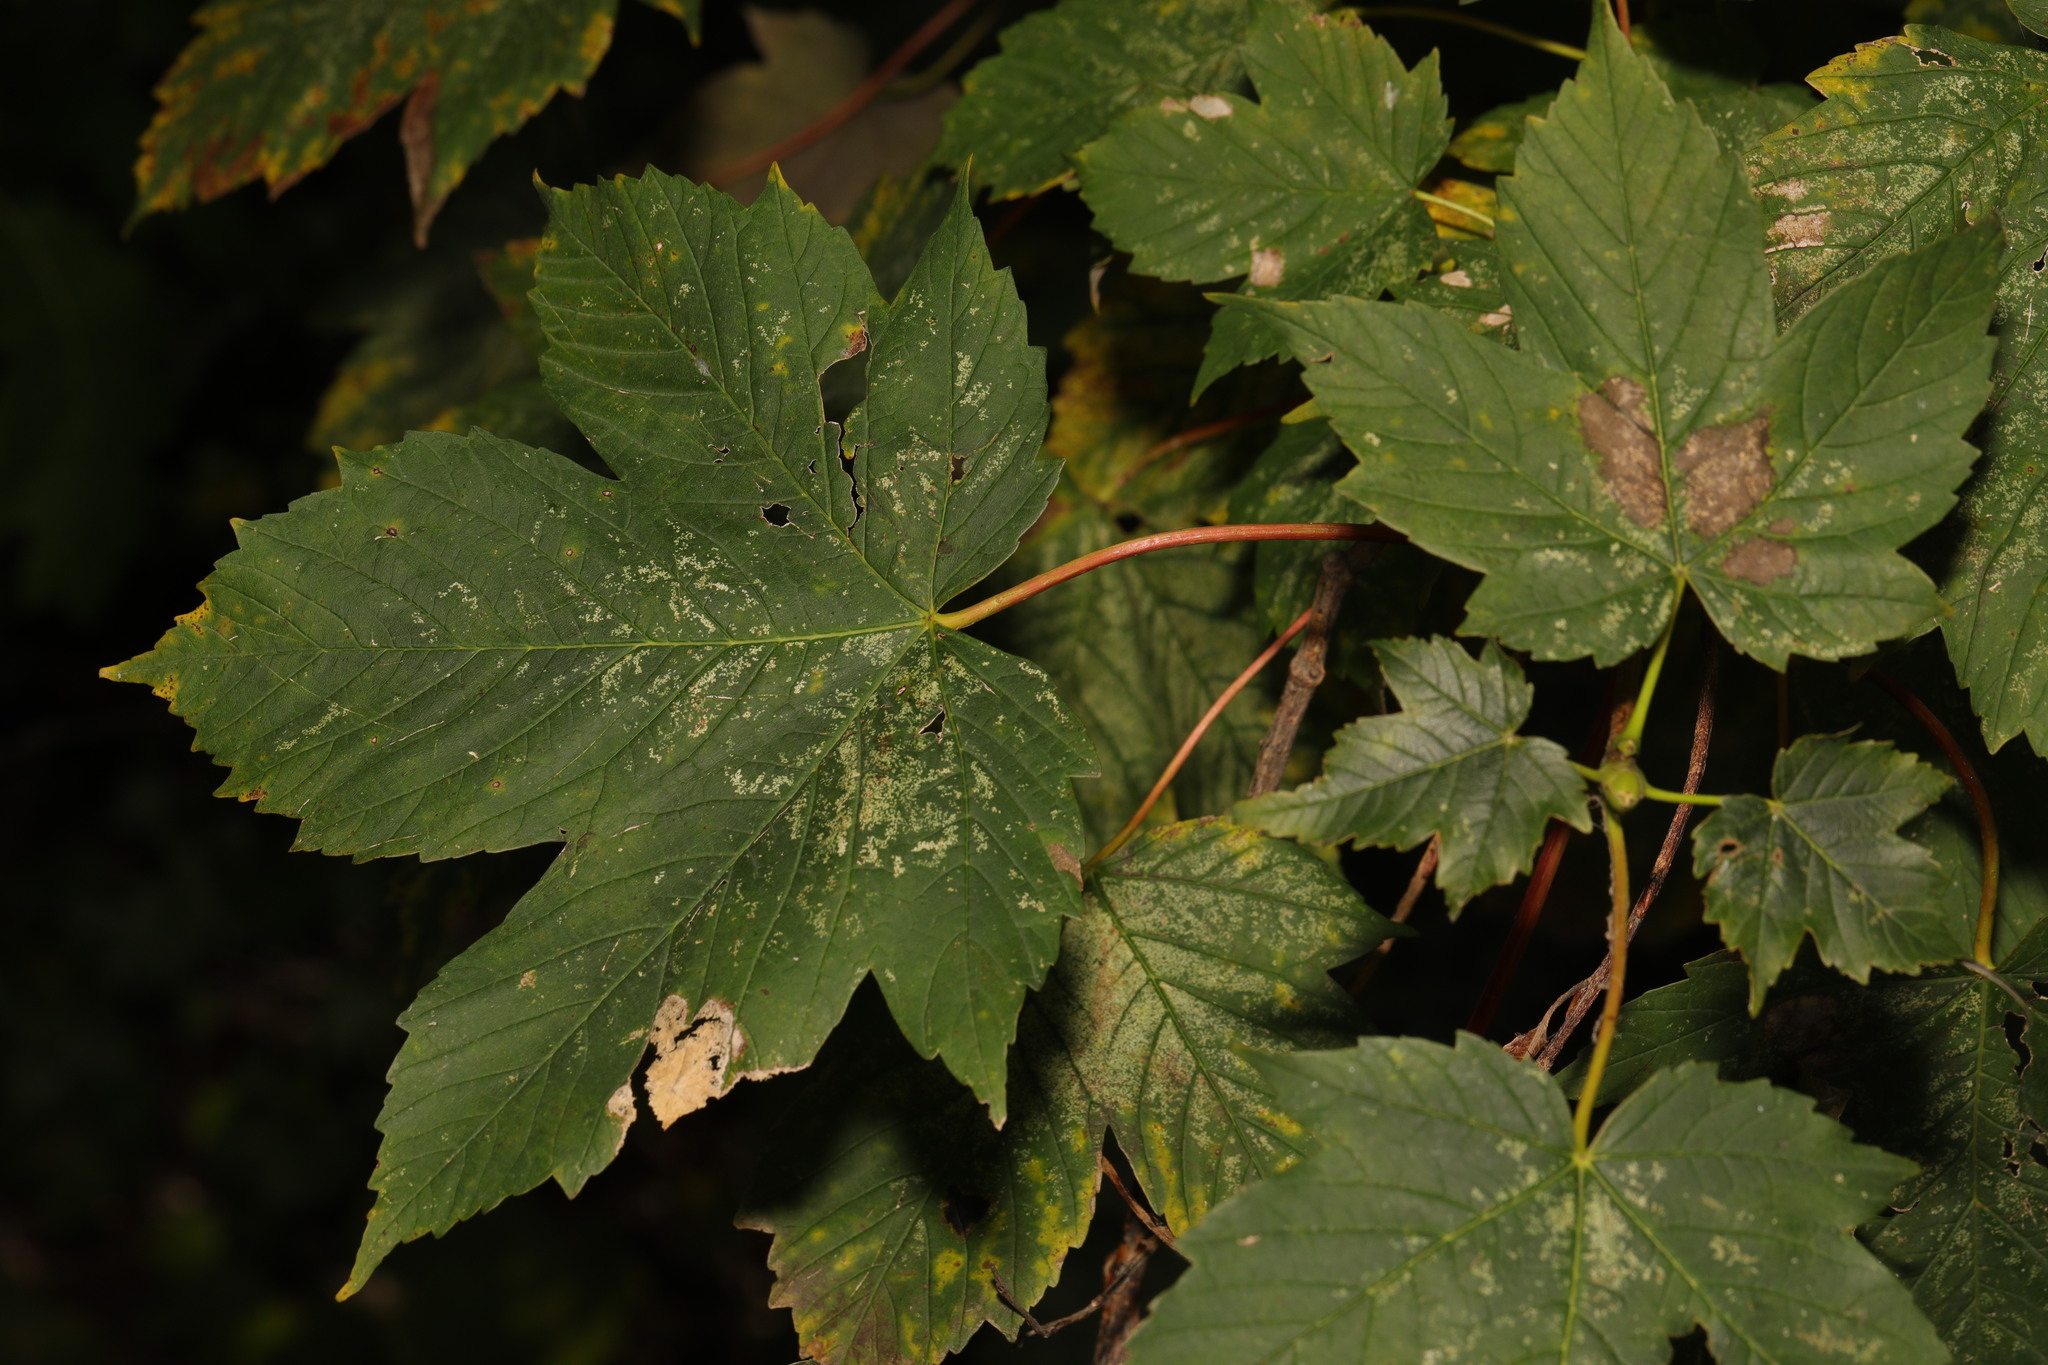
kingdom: Plantae
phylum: Tracheophyta
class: Magnoliopsida
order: Sapindales
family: Sapindaceae
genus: Acer
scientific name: Acer pseudoplatanus
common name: Sycamore
